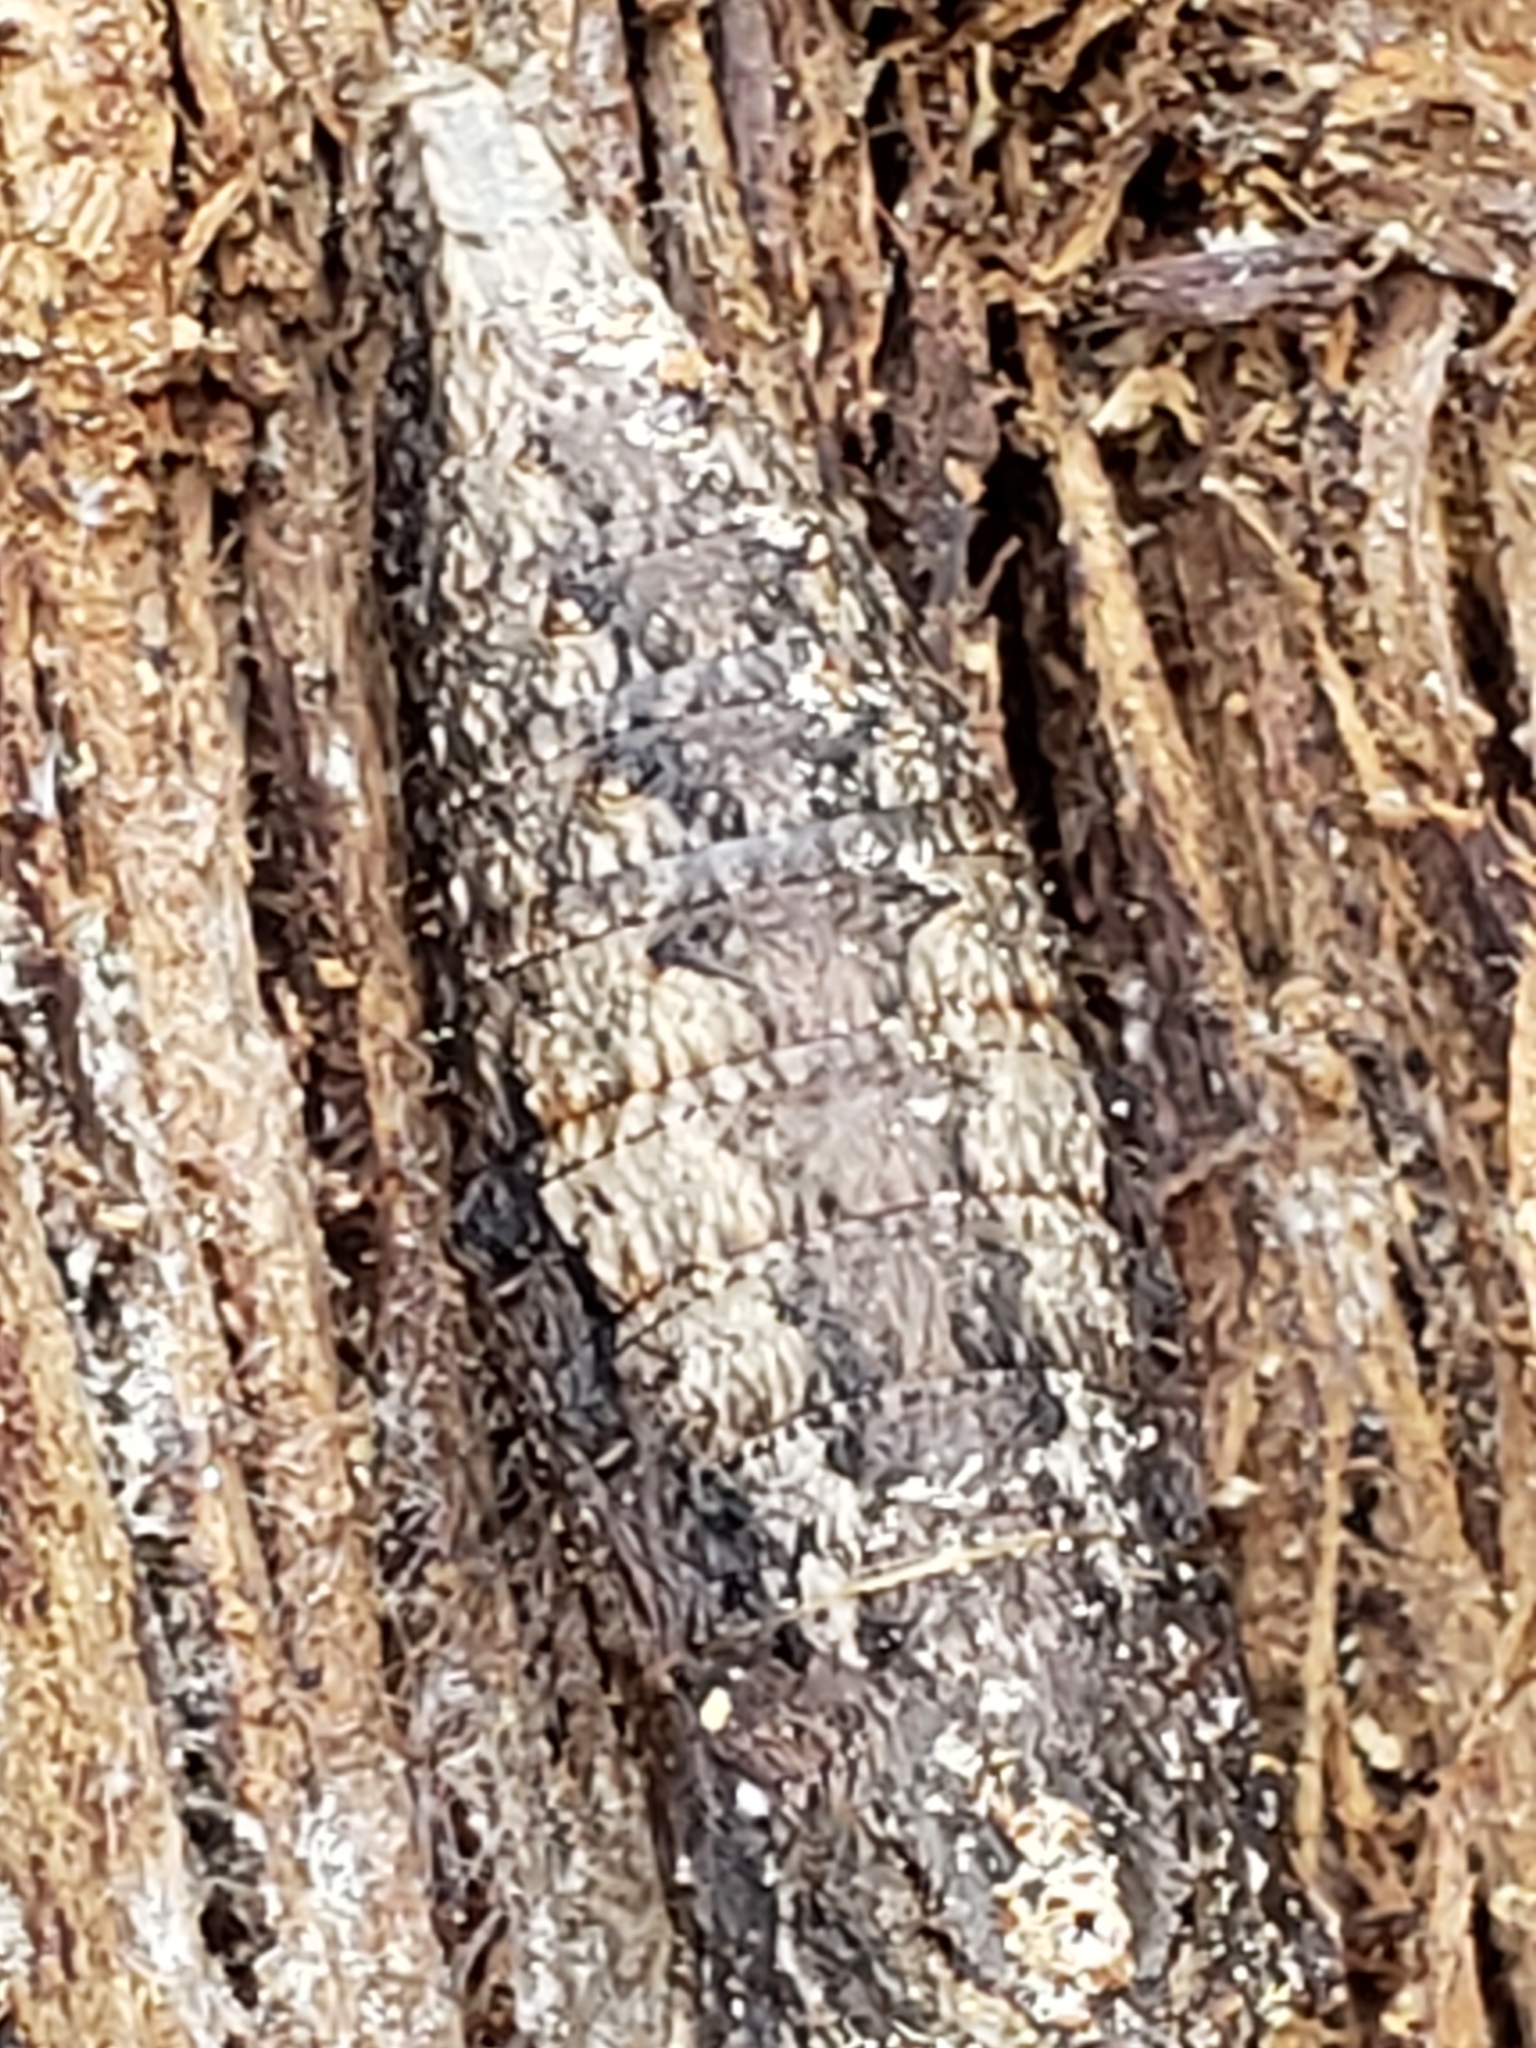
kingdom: Animalia
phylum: Arthropoda
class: Insecta
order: Lepidoptera
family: Papilionidae
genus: Papilio
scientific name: Papilio glaucus
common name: Tiger swallowtail
